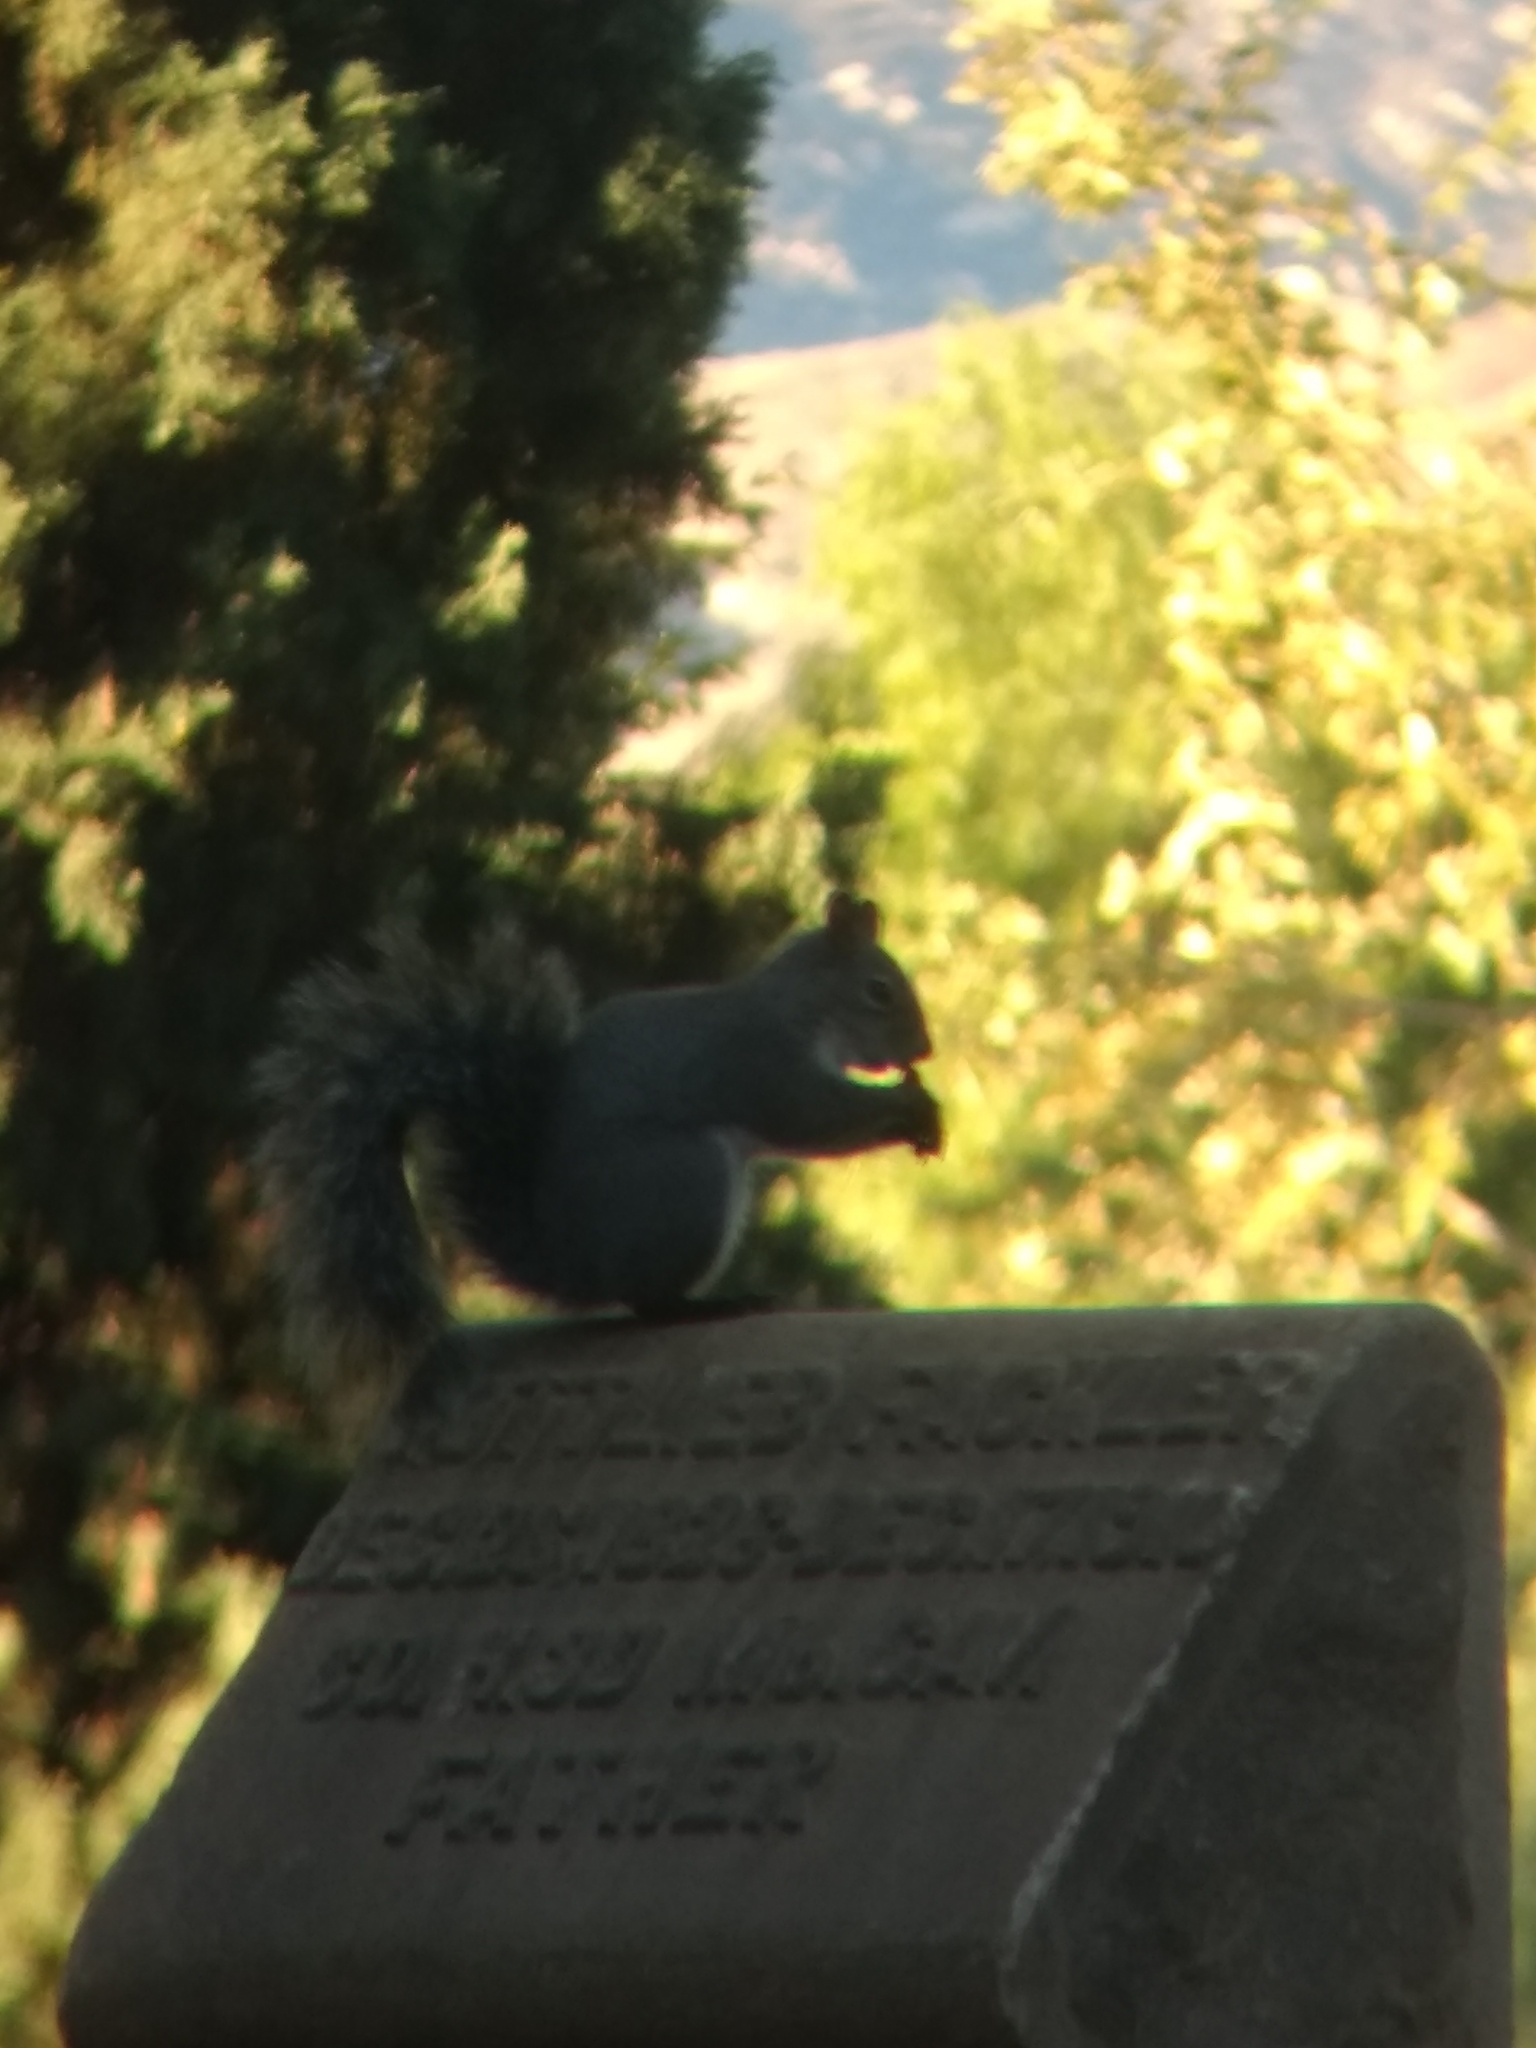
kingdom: Animalia
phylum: Chordata
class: Mammalia
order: Rodentia
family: Sciuridae
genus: Sciurus
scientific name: Sciurus griseus
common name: Western gray squirrel
